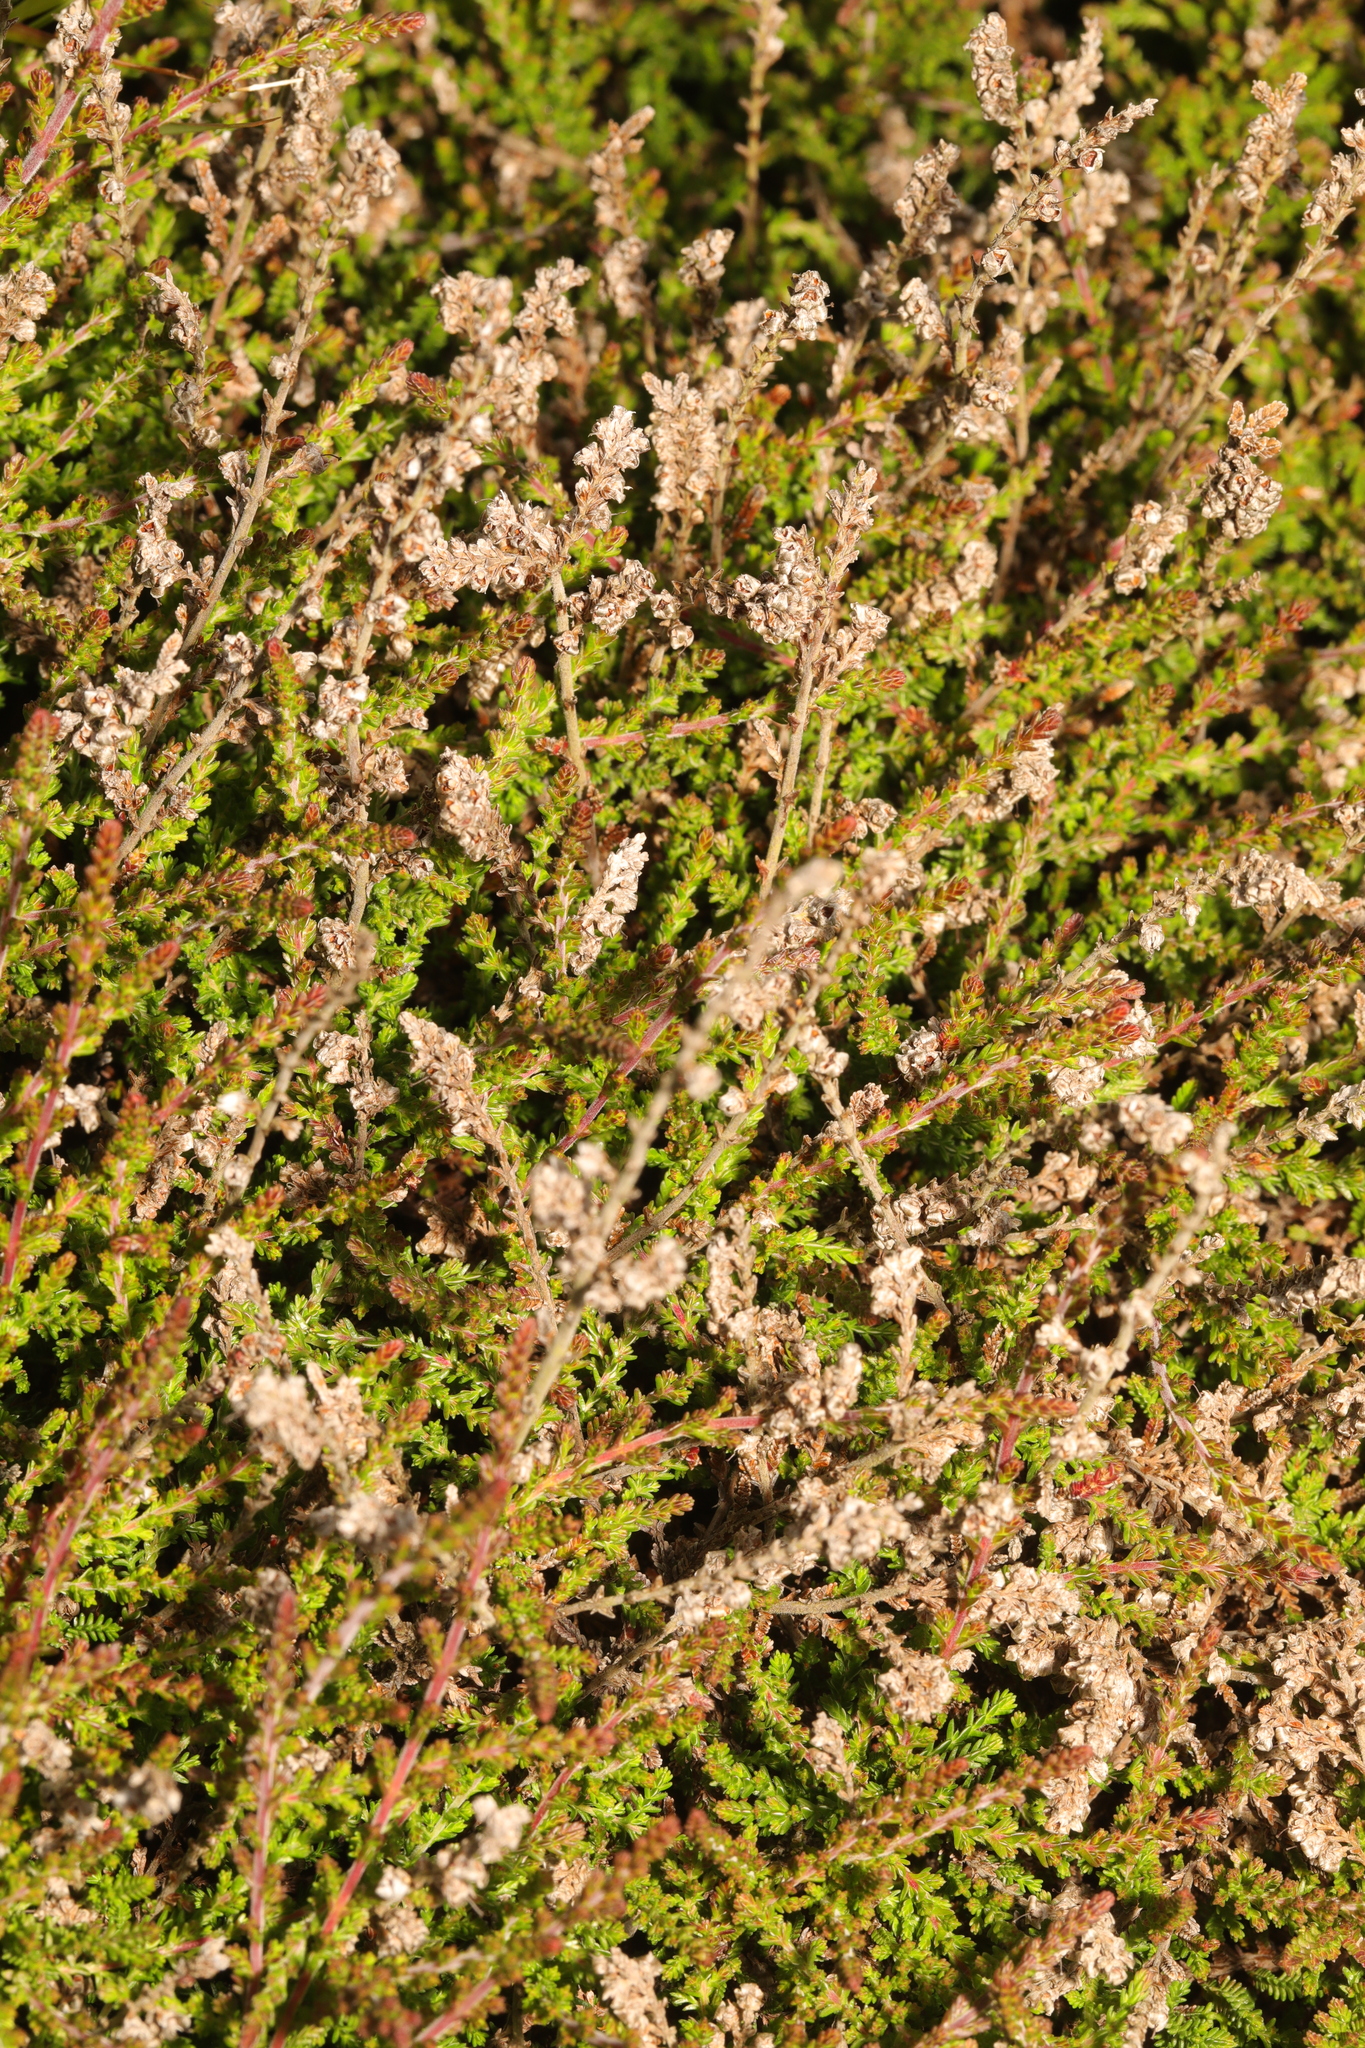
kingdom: Plantae
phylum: Tracheophyta
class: Magnoliopsida
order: Ericales
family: Ericaceae
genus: Calluna
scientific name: Calluna vulgaris
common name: Heather
